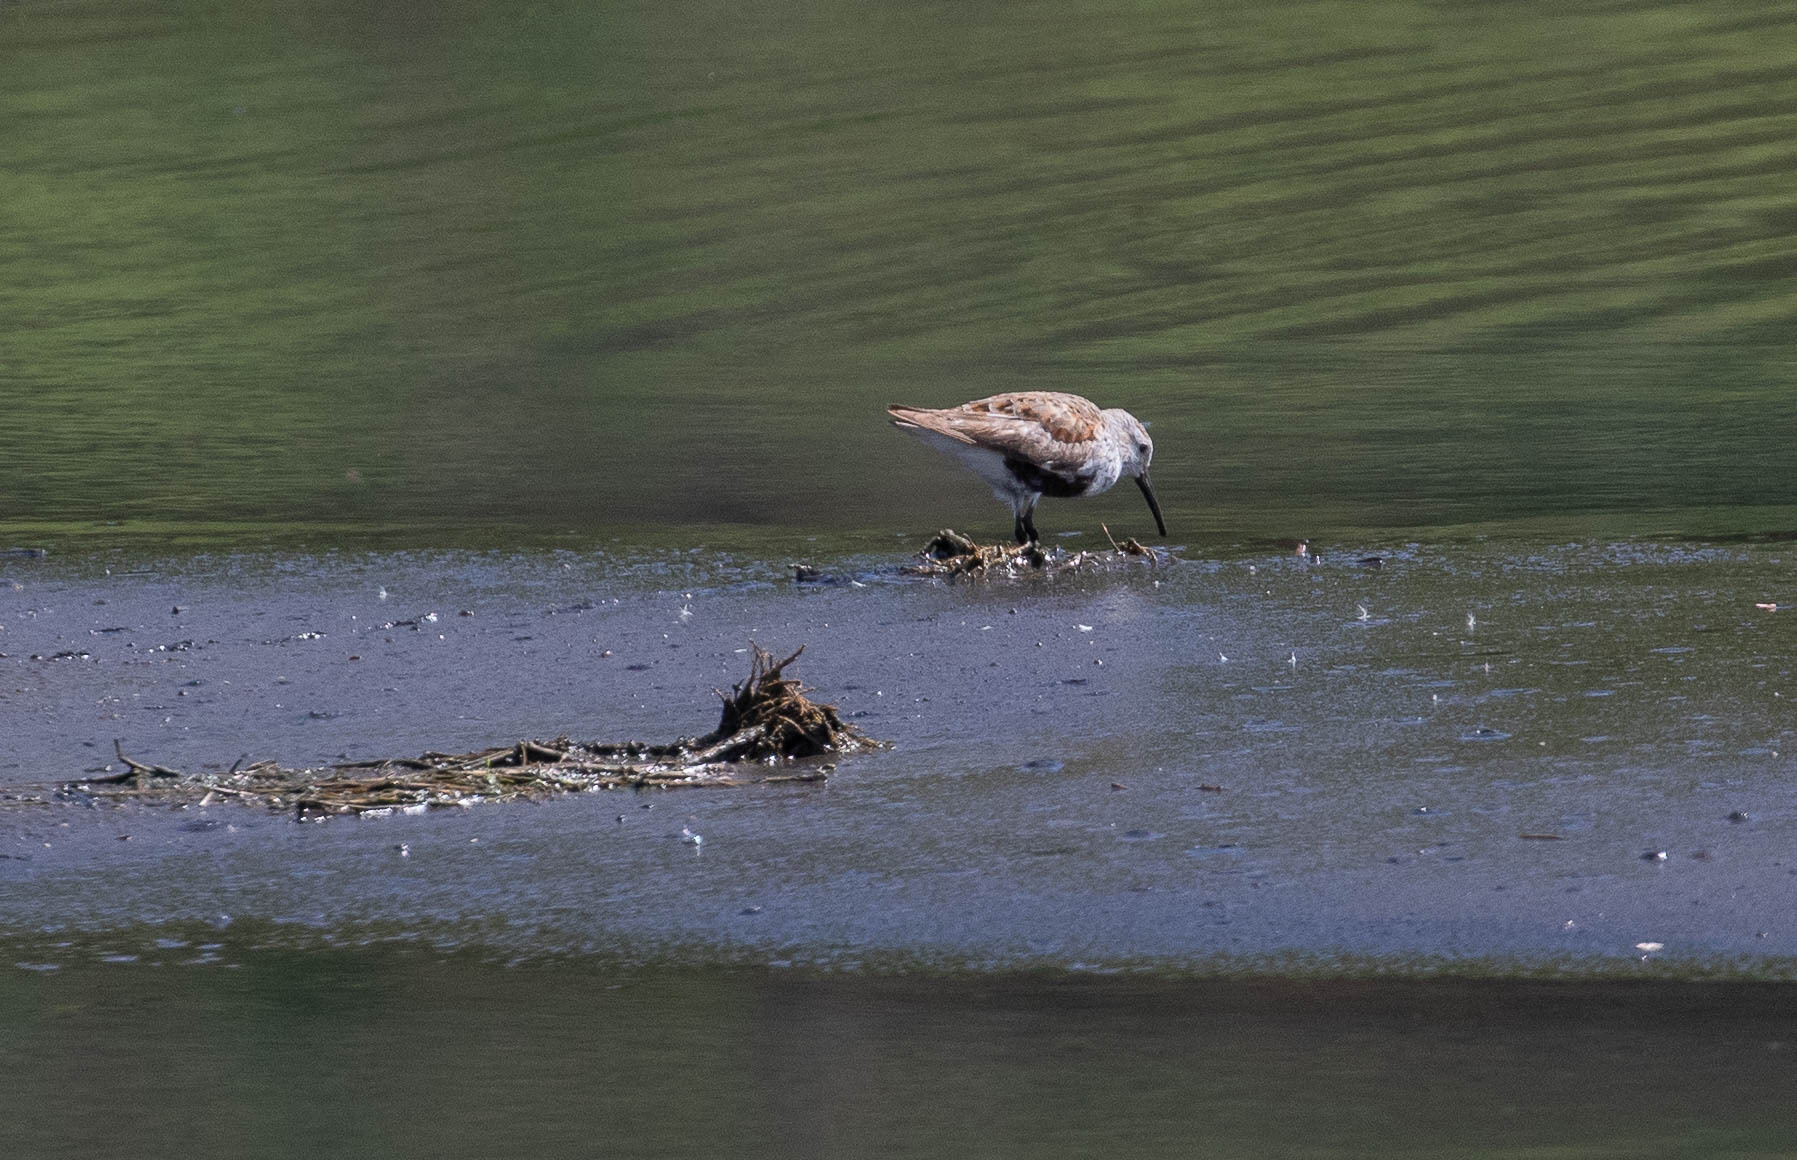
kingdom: Animalia
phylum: Chordata
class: Aves
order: Charadriiformes
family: Scolopacidae
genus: Calidris
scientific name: Calidris alpina
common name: Dunlin
